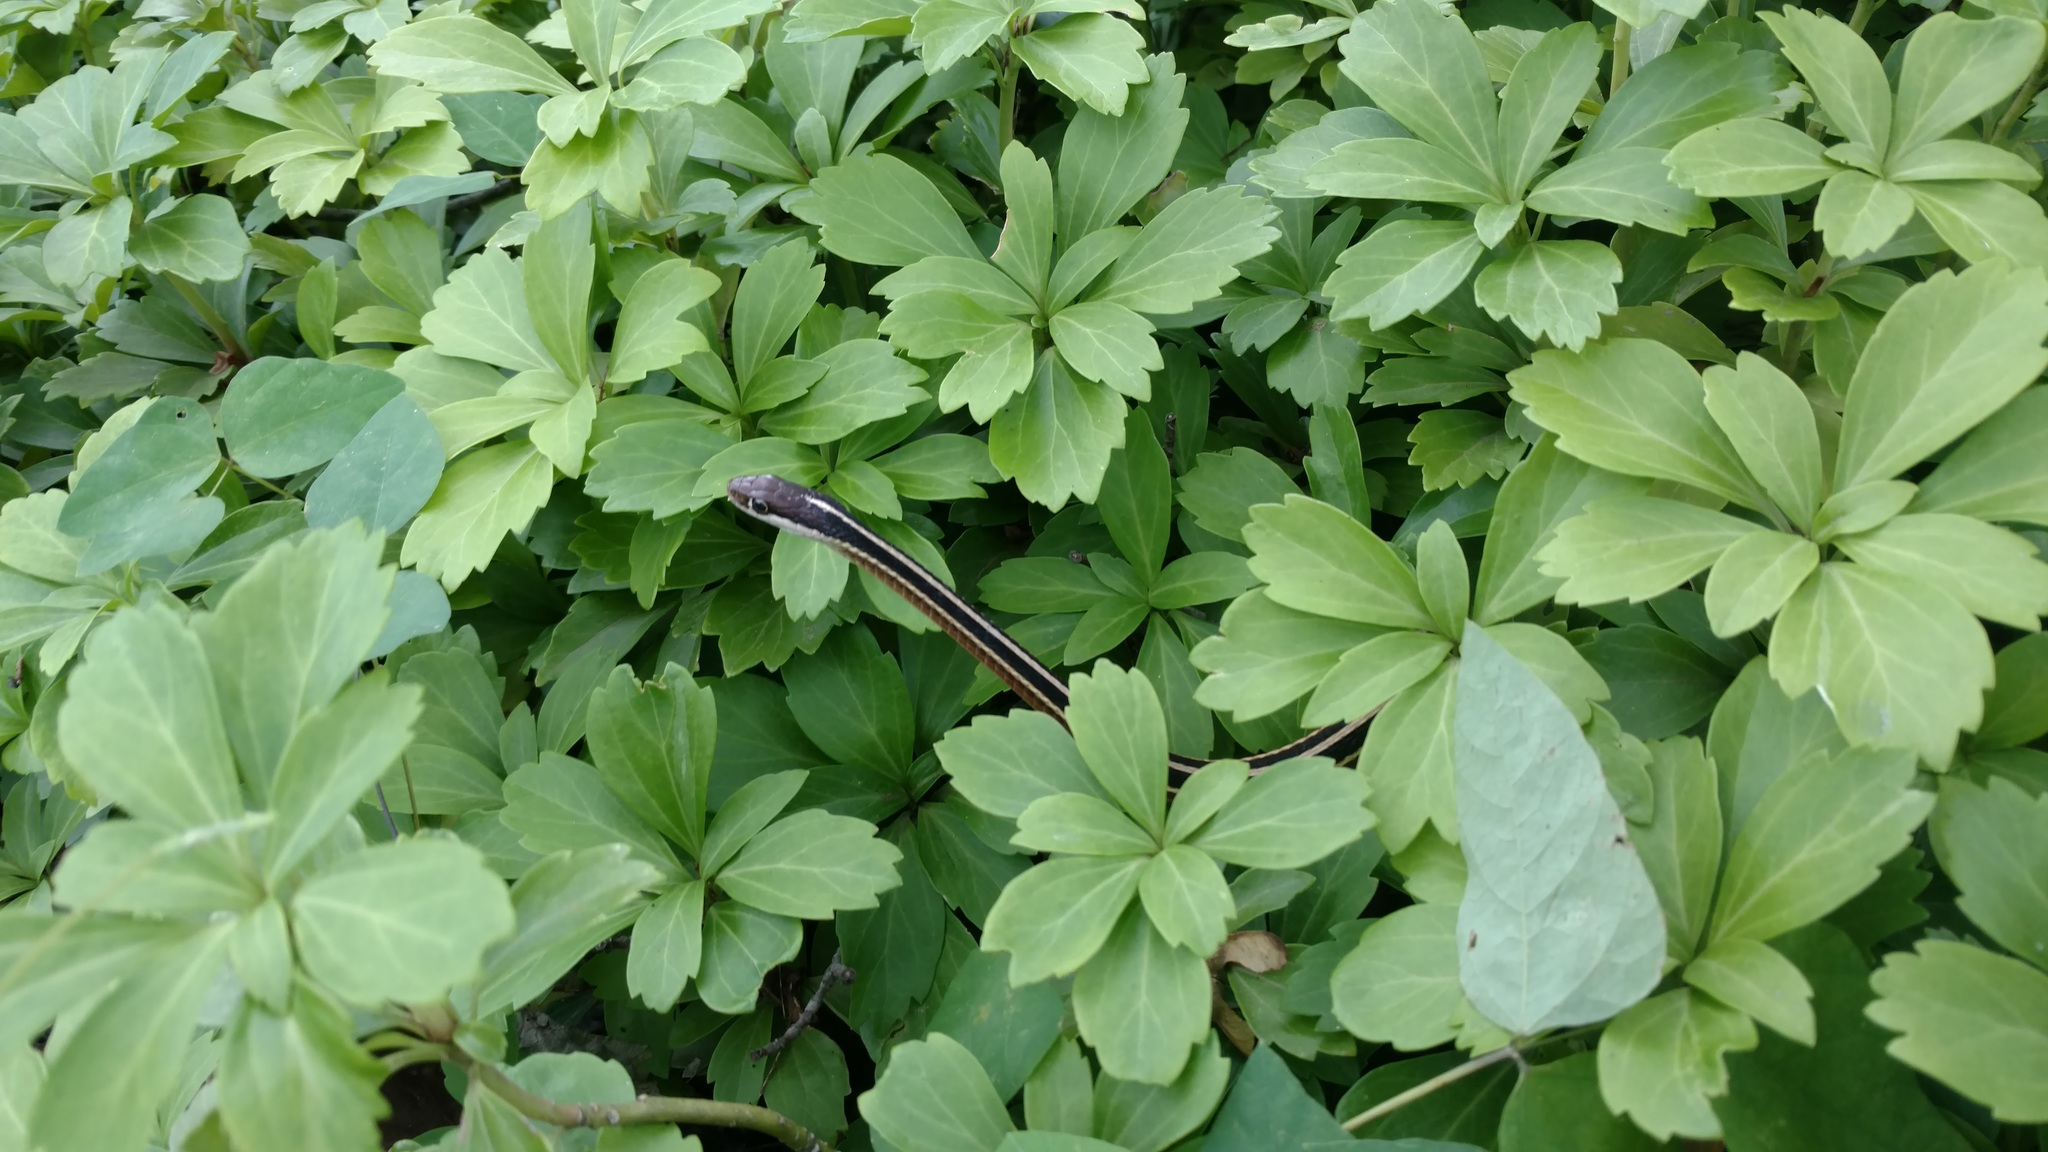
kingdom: Animalia
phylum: Chordata
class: Squamata
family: Colubridae
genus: Thamnophis
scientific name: Thamnophis saurita
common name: Eastern ribbonsnake
